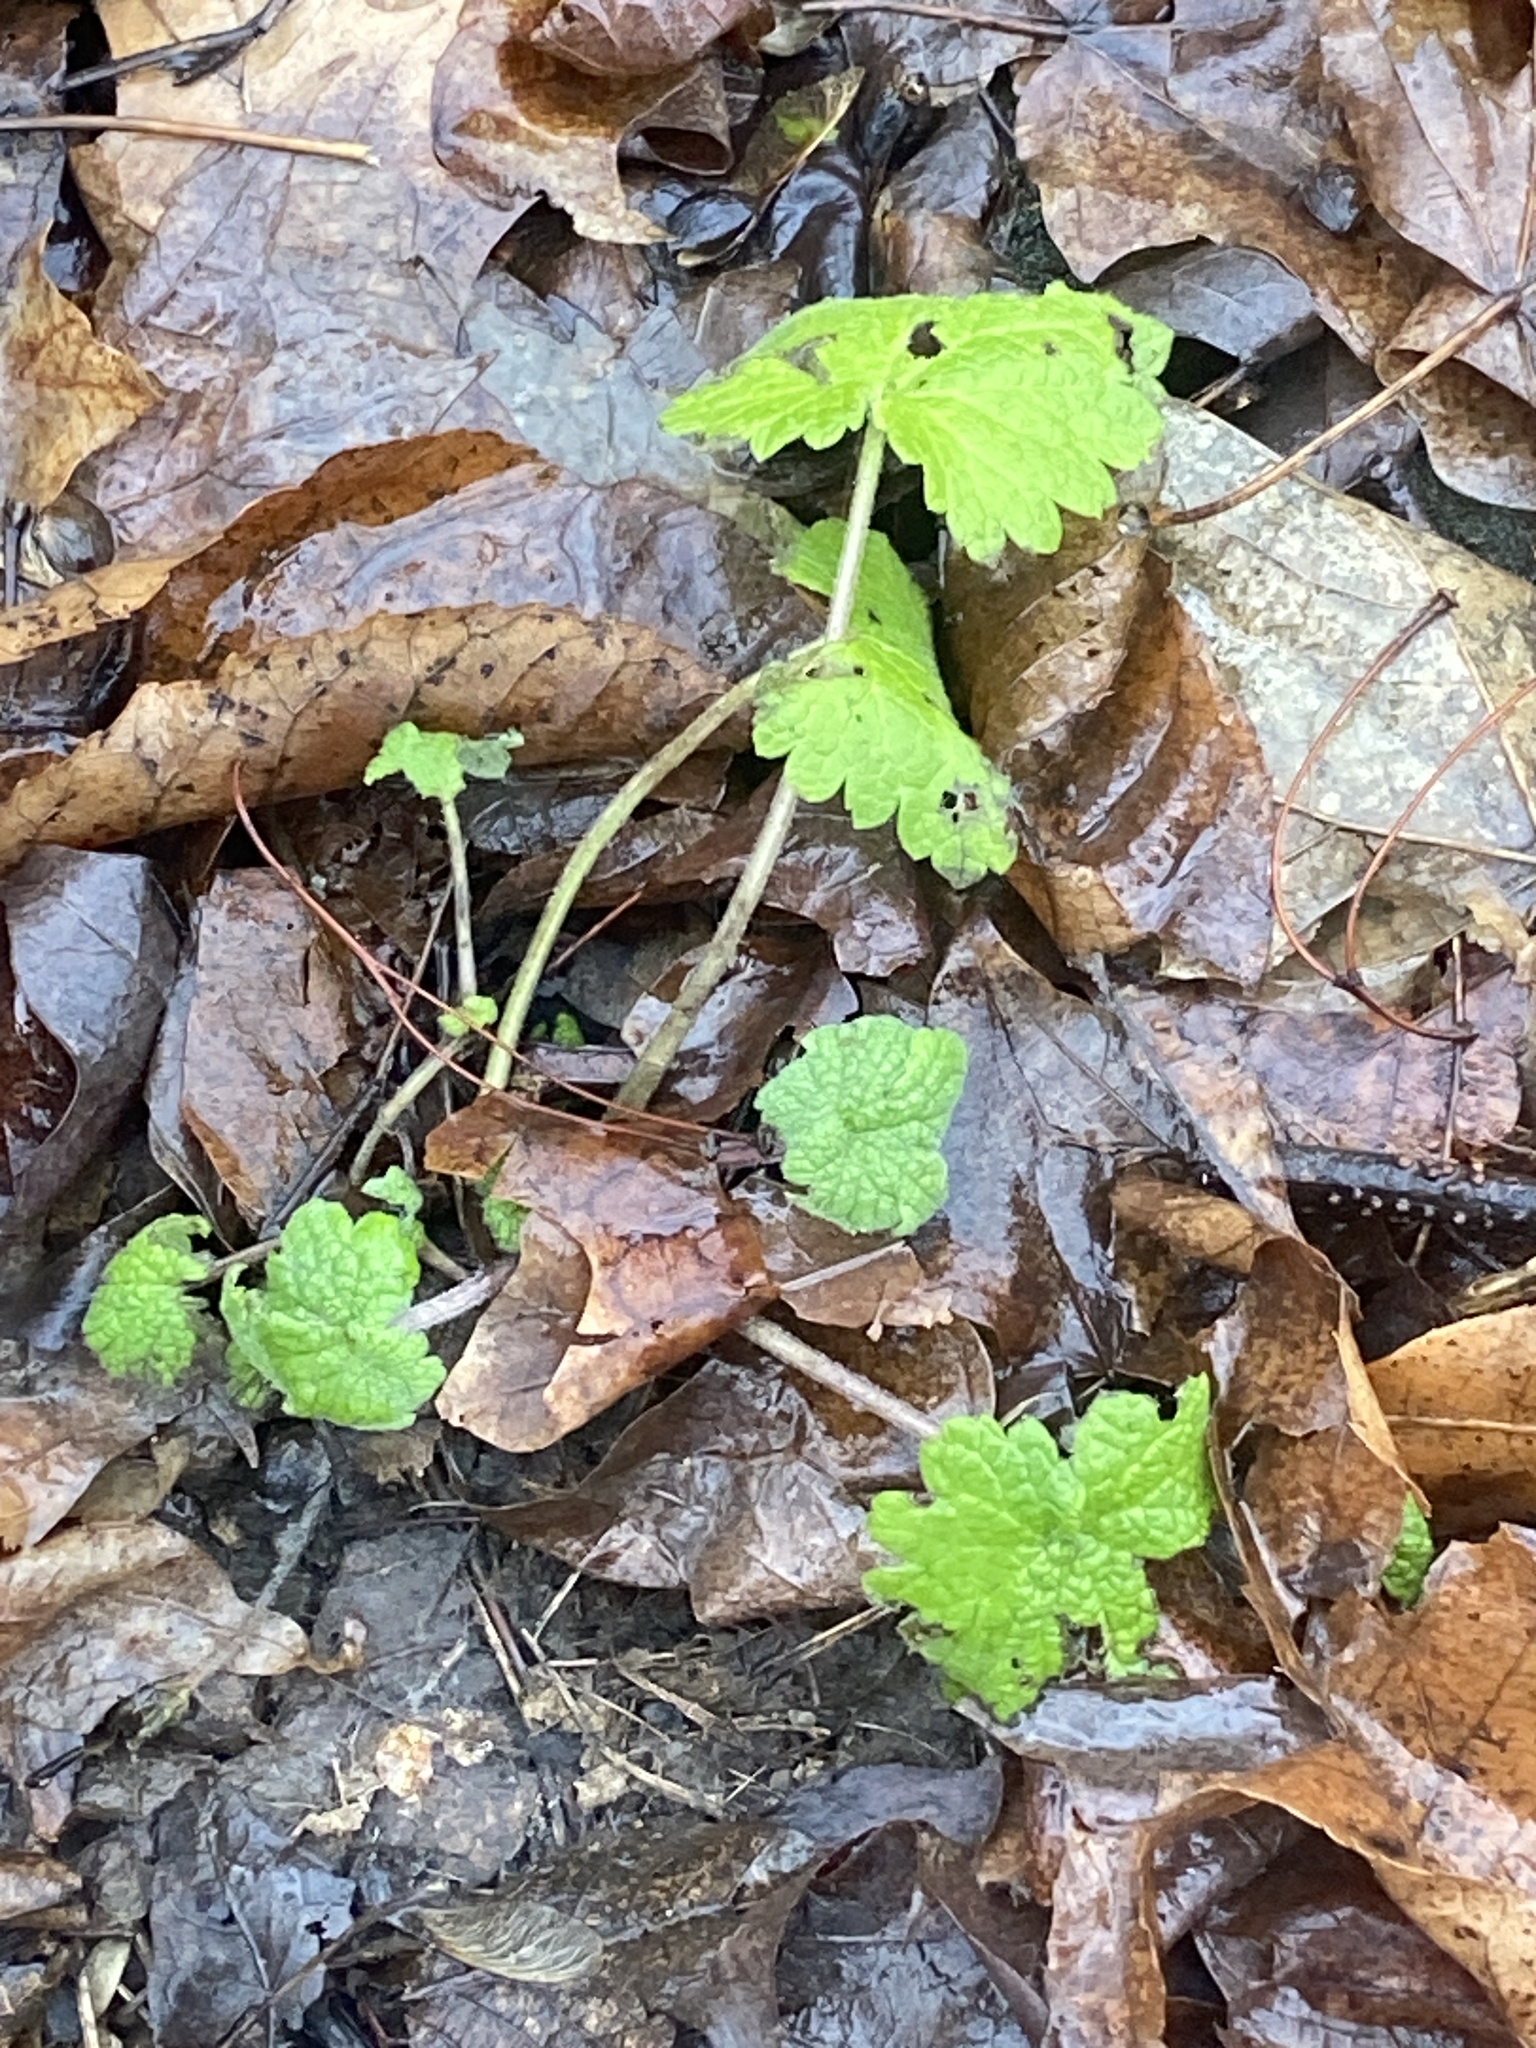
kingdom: Plantae
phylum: Tracheophyta
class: Magnoliopsida
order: Lamiales
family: Lamiaceae
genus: Leonurus
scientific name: Leonurus cardiaca
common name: Motherwort
